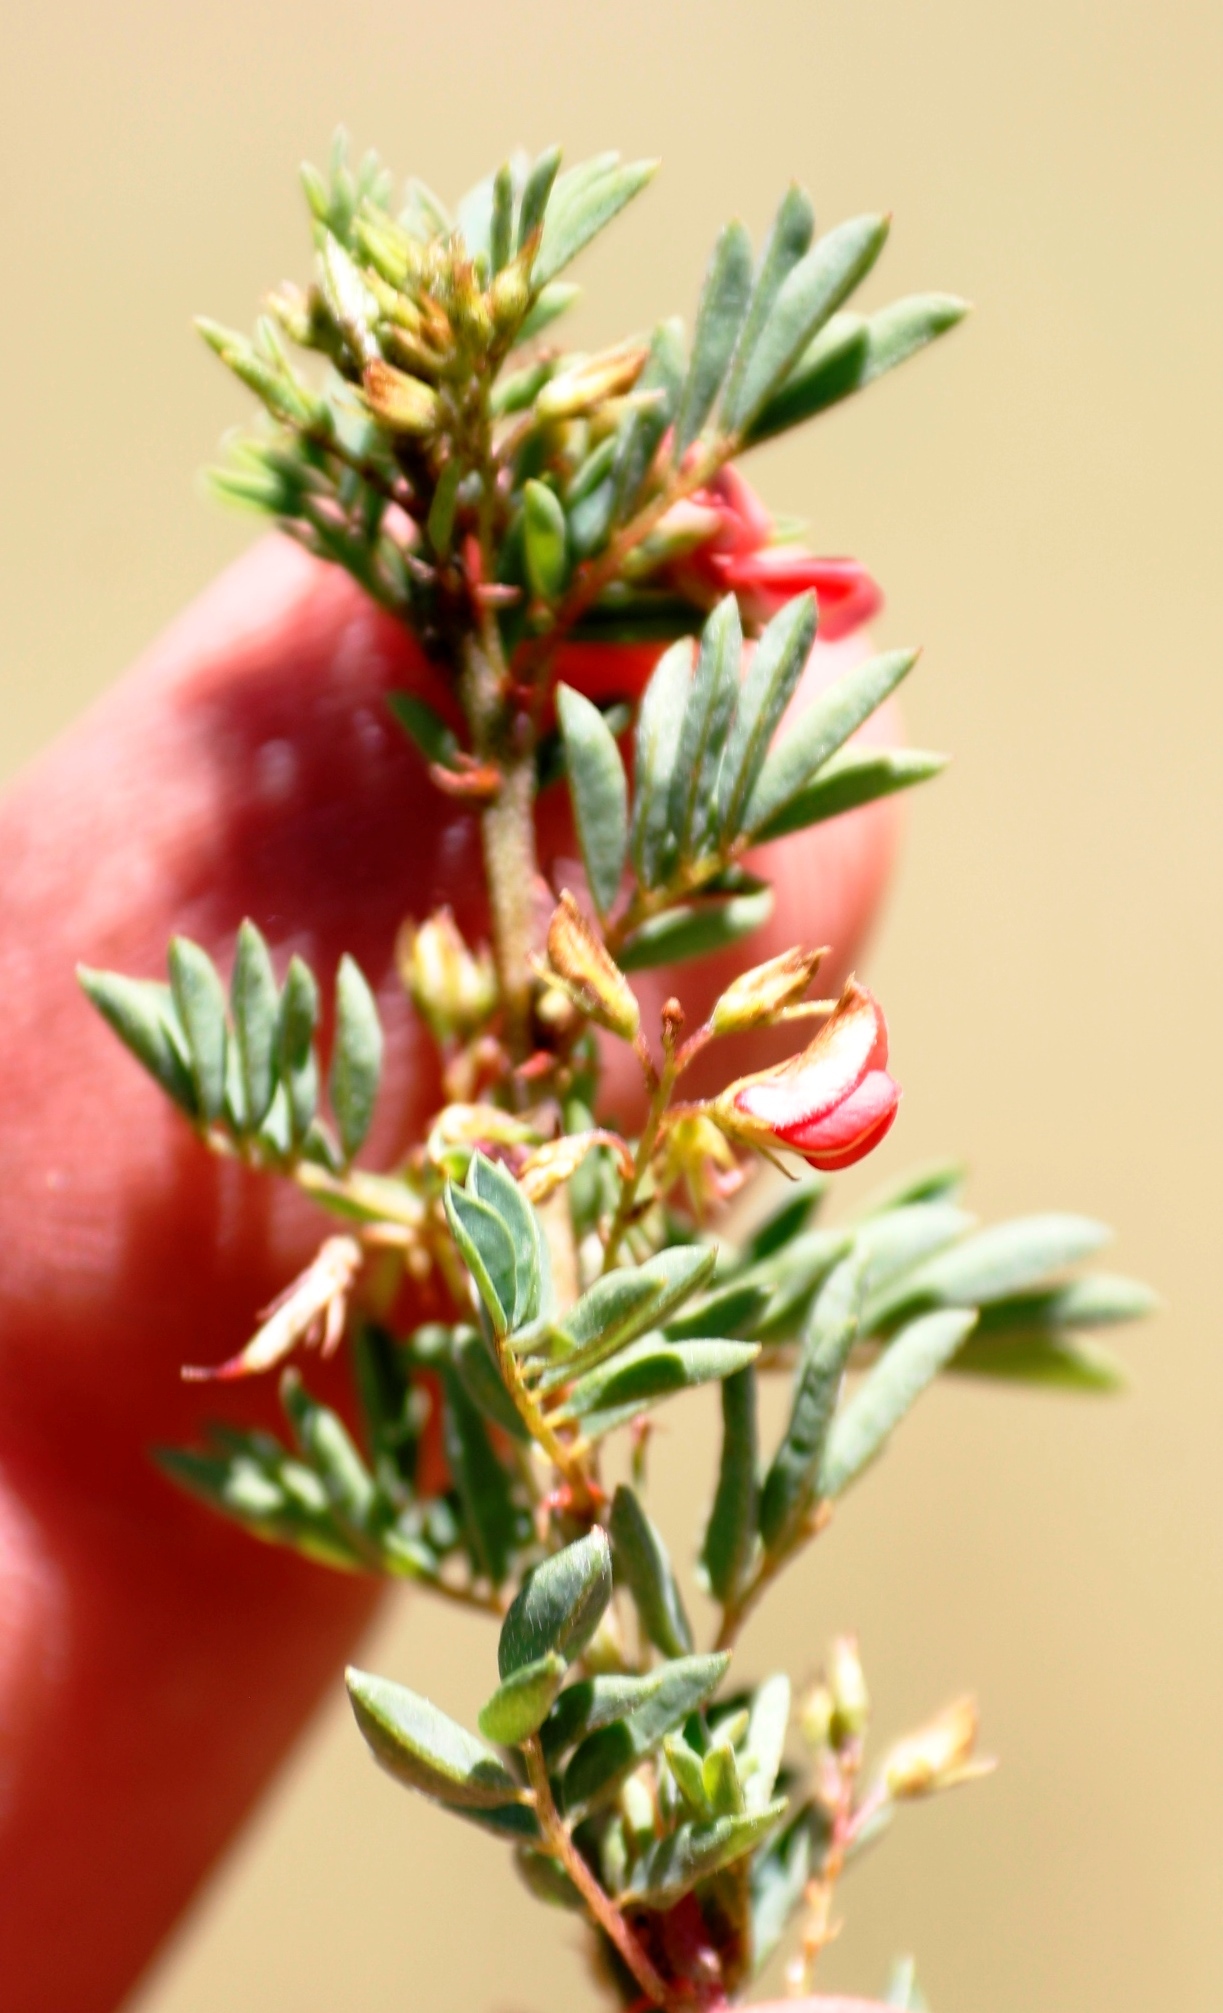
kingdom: Plantae
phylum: Tracheophyta
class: Magnoliopsida
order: Fabales
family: Fabaceae
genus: Indigofera
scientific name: Indigofera woodii
